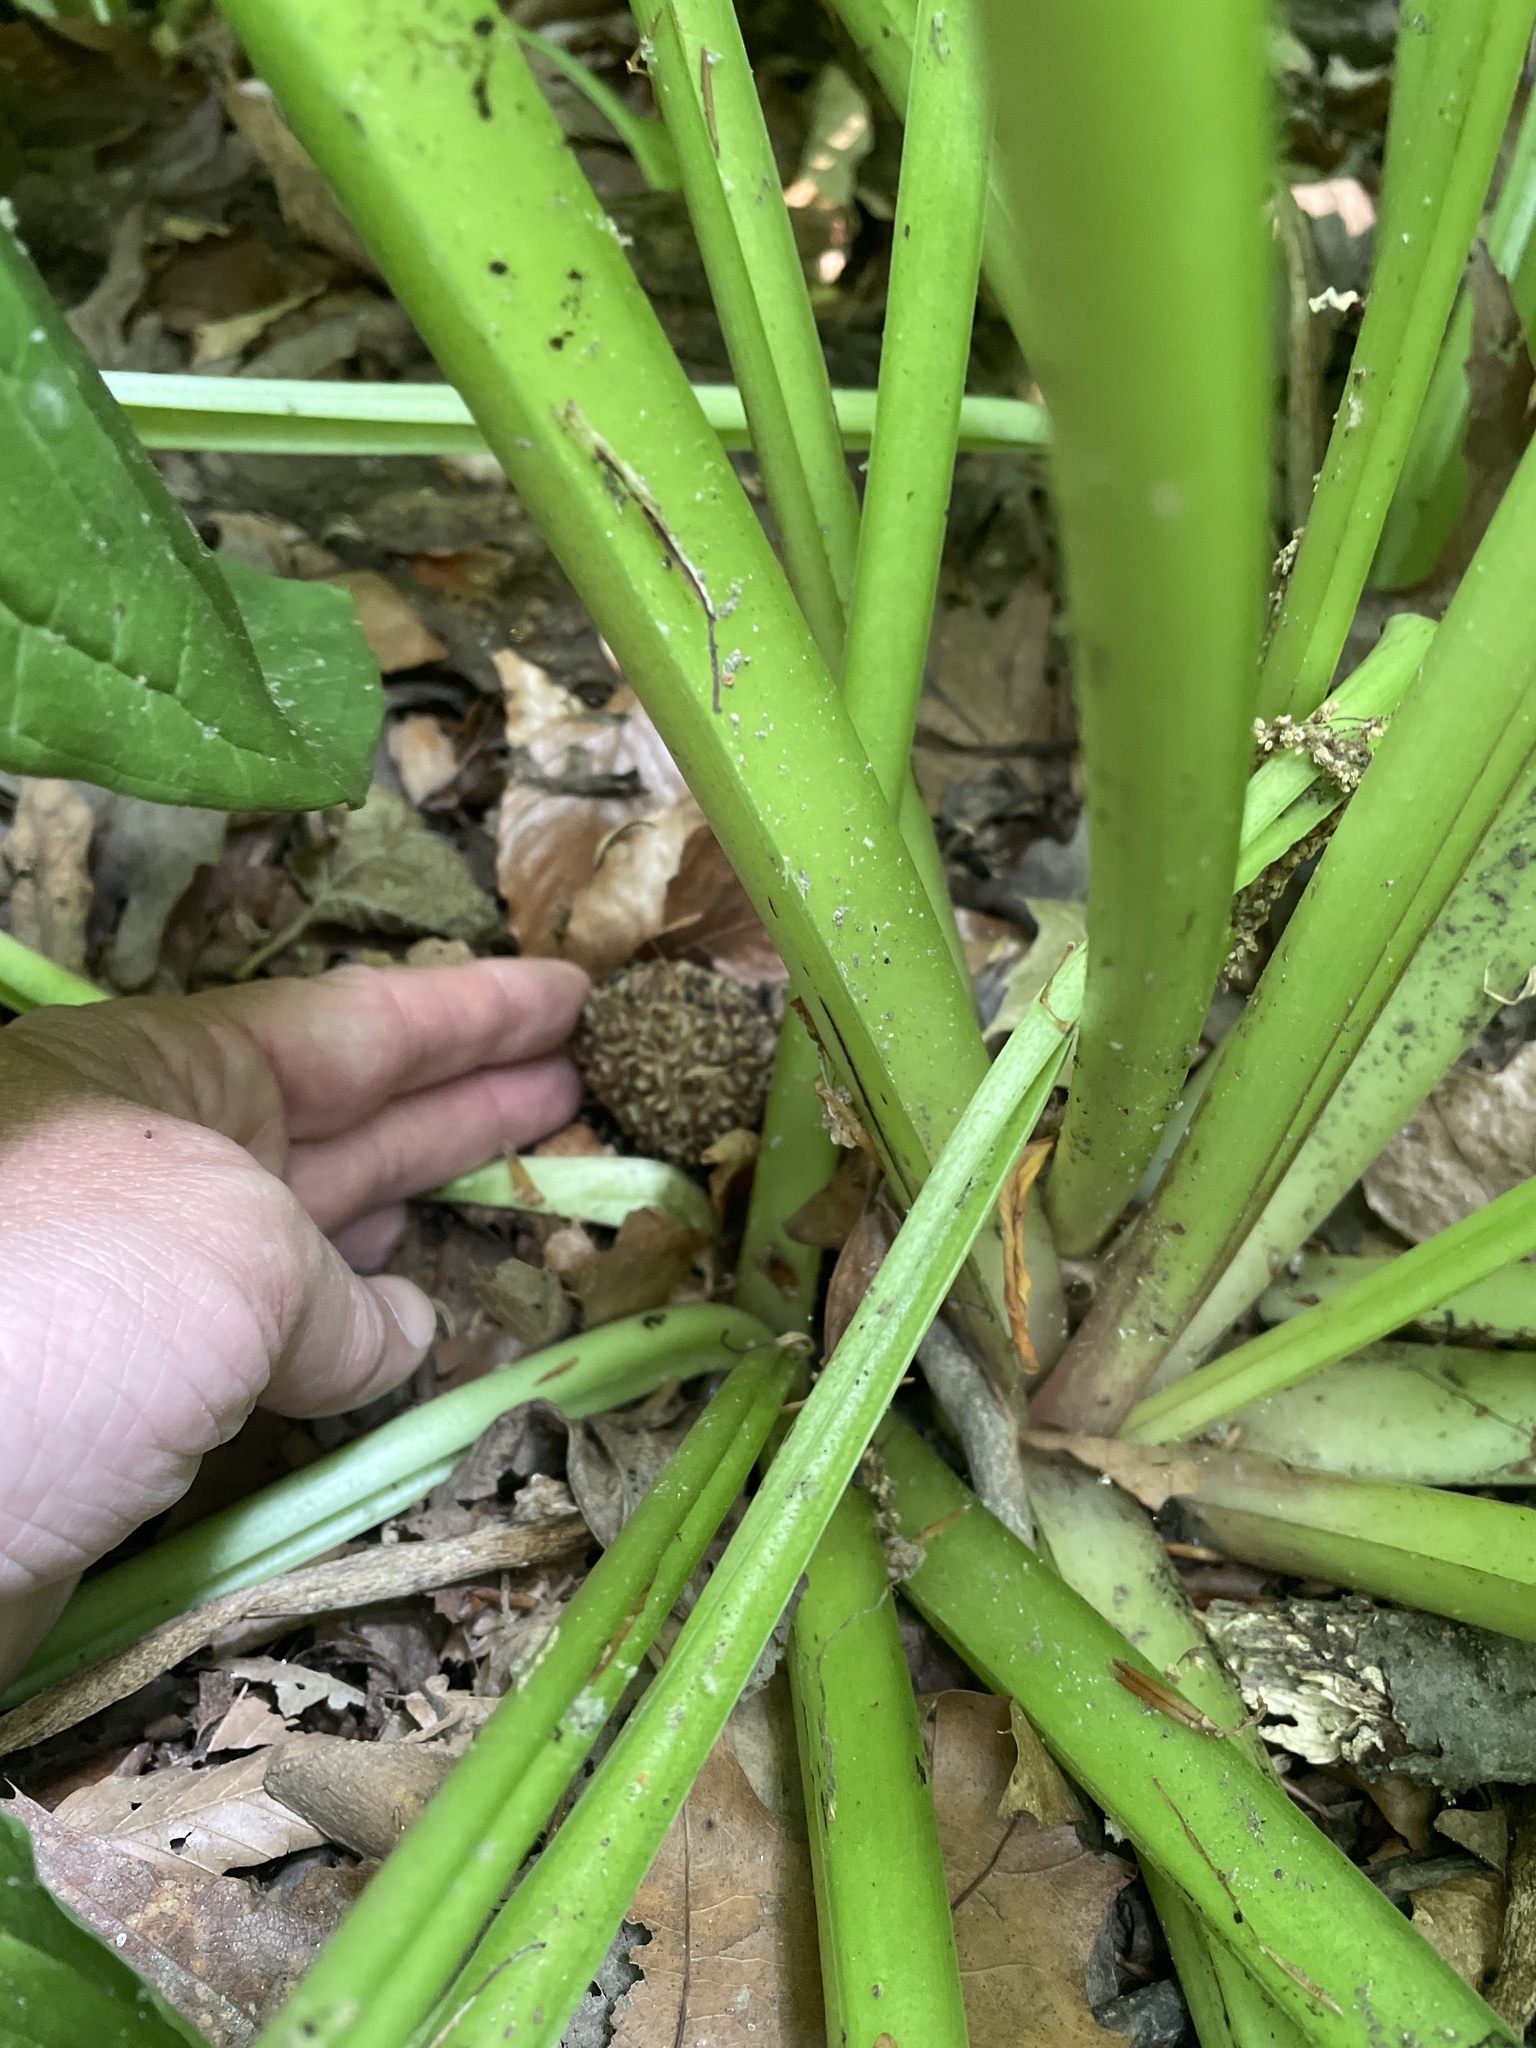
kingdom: Plantae
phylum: Tracheophyta
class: Liliopsida
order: Alismatales
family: Araceae
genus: Symplocarpus
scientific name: Symplocarpus foetidus
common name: Eastern skunk cabbage
